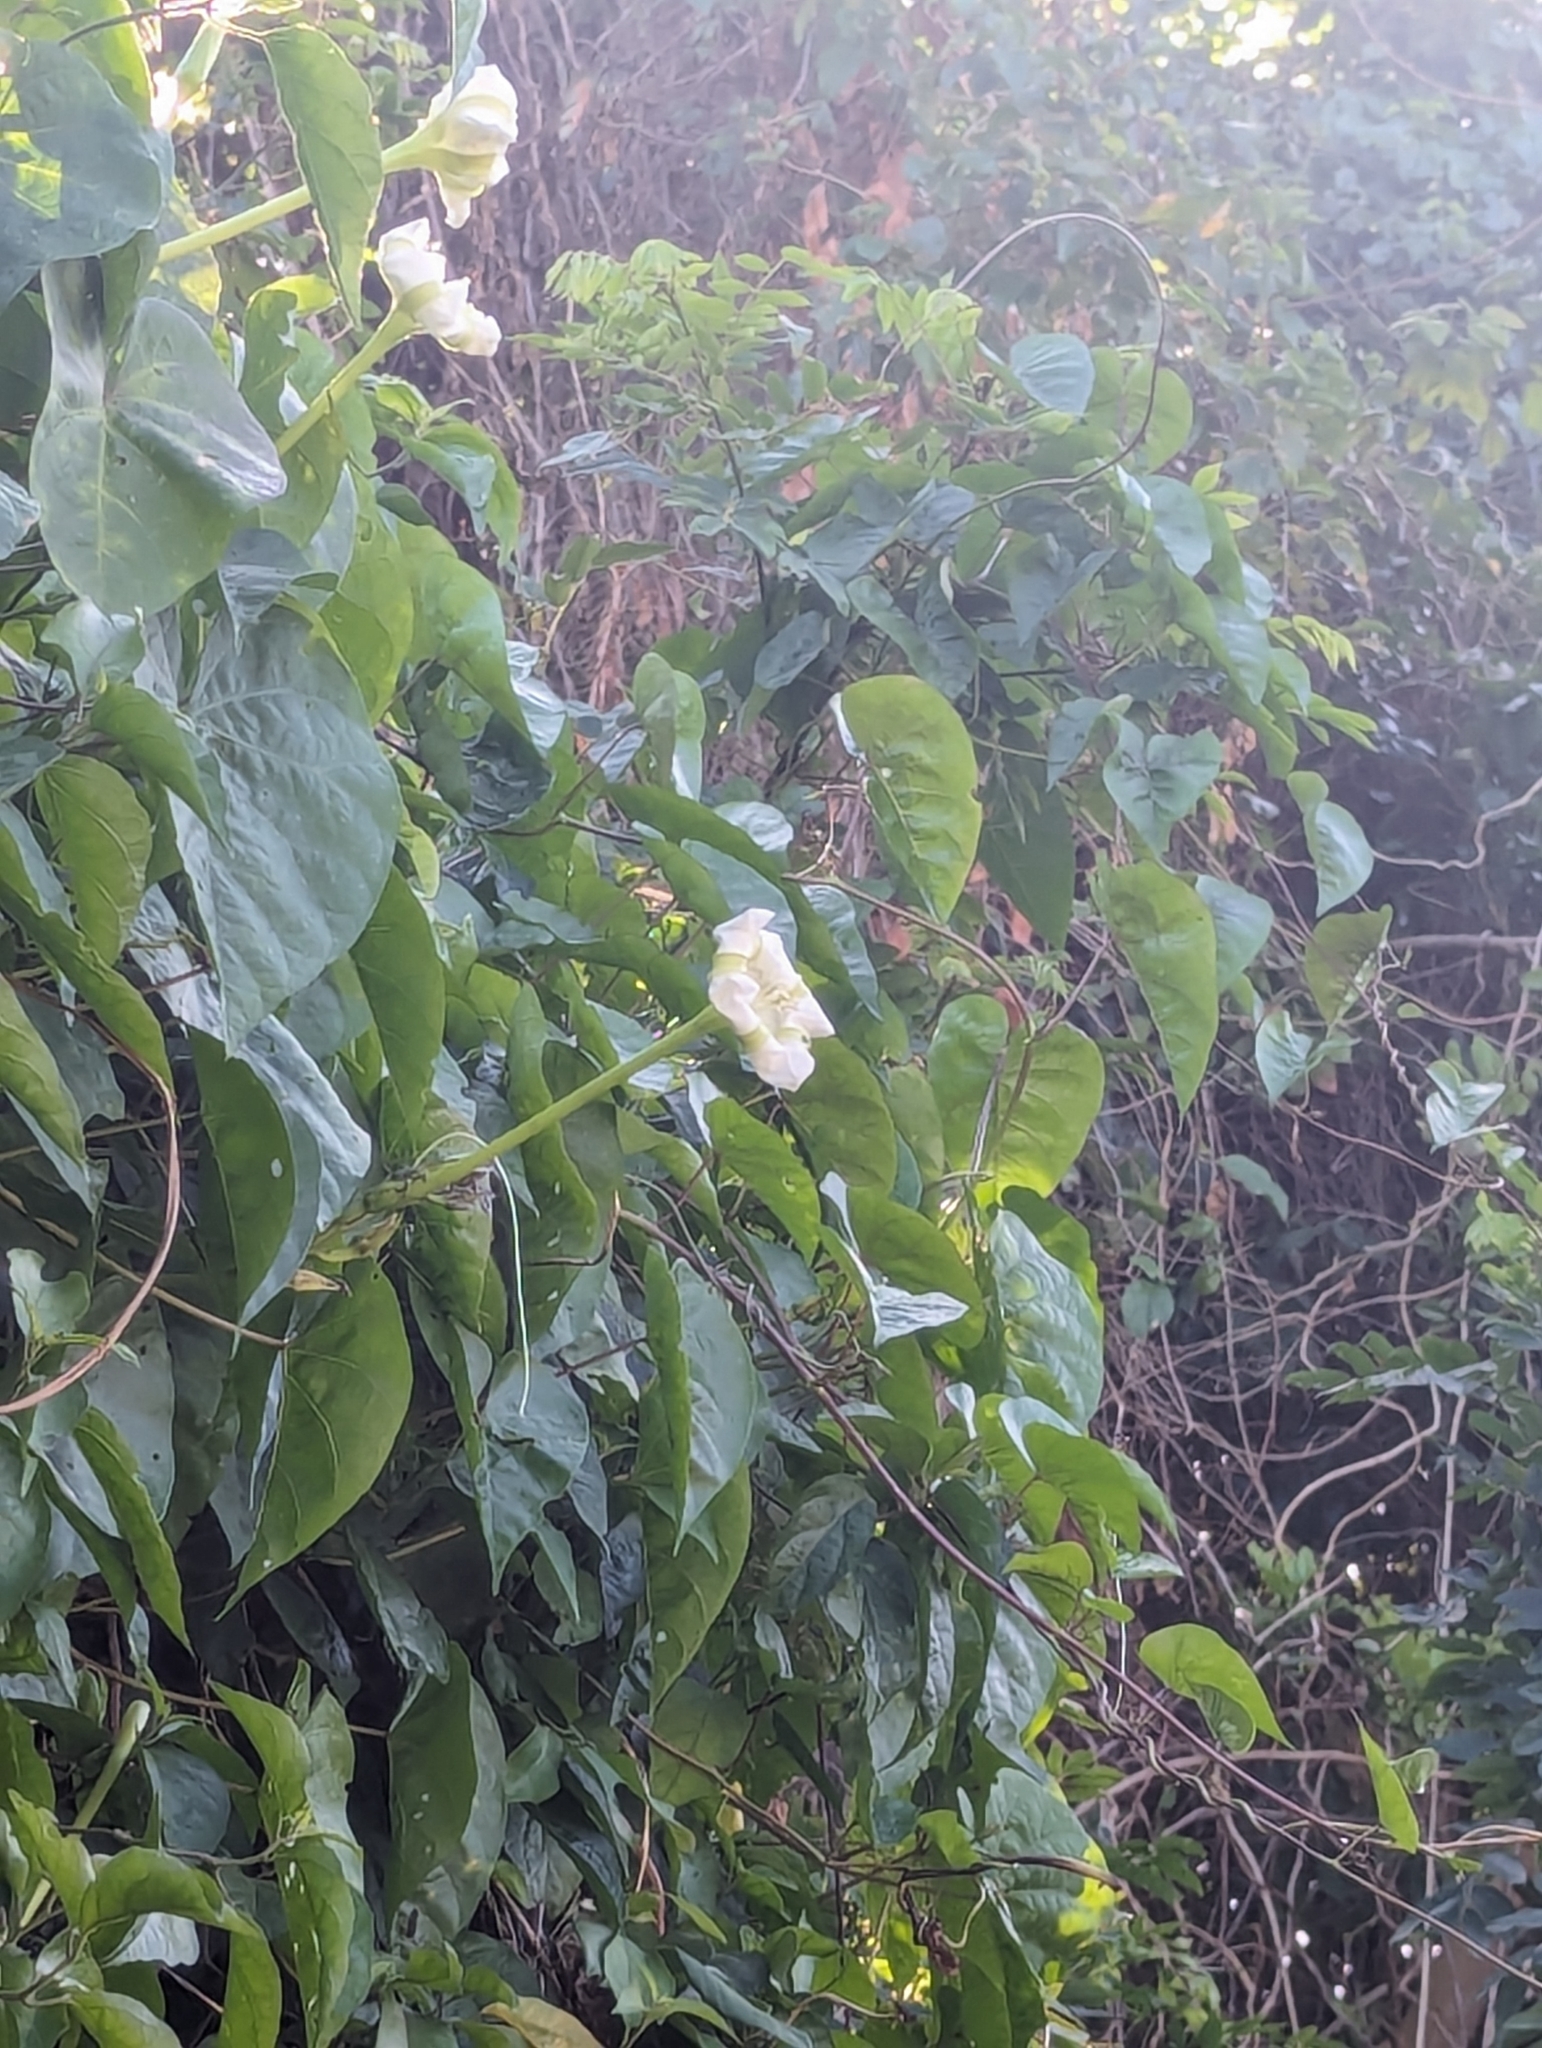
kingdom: Plantae
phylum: Tracheophyta
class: Magnoliopsida
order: Solanales
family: Convolvulaceae
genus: Ipomoea
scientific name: Ipomoea alba
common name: Moonflower
